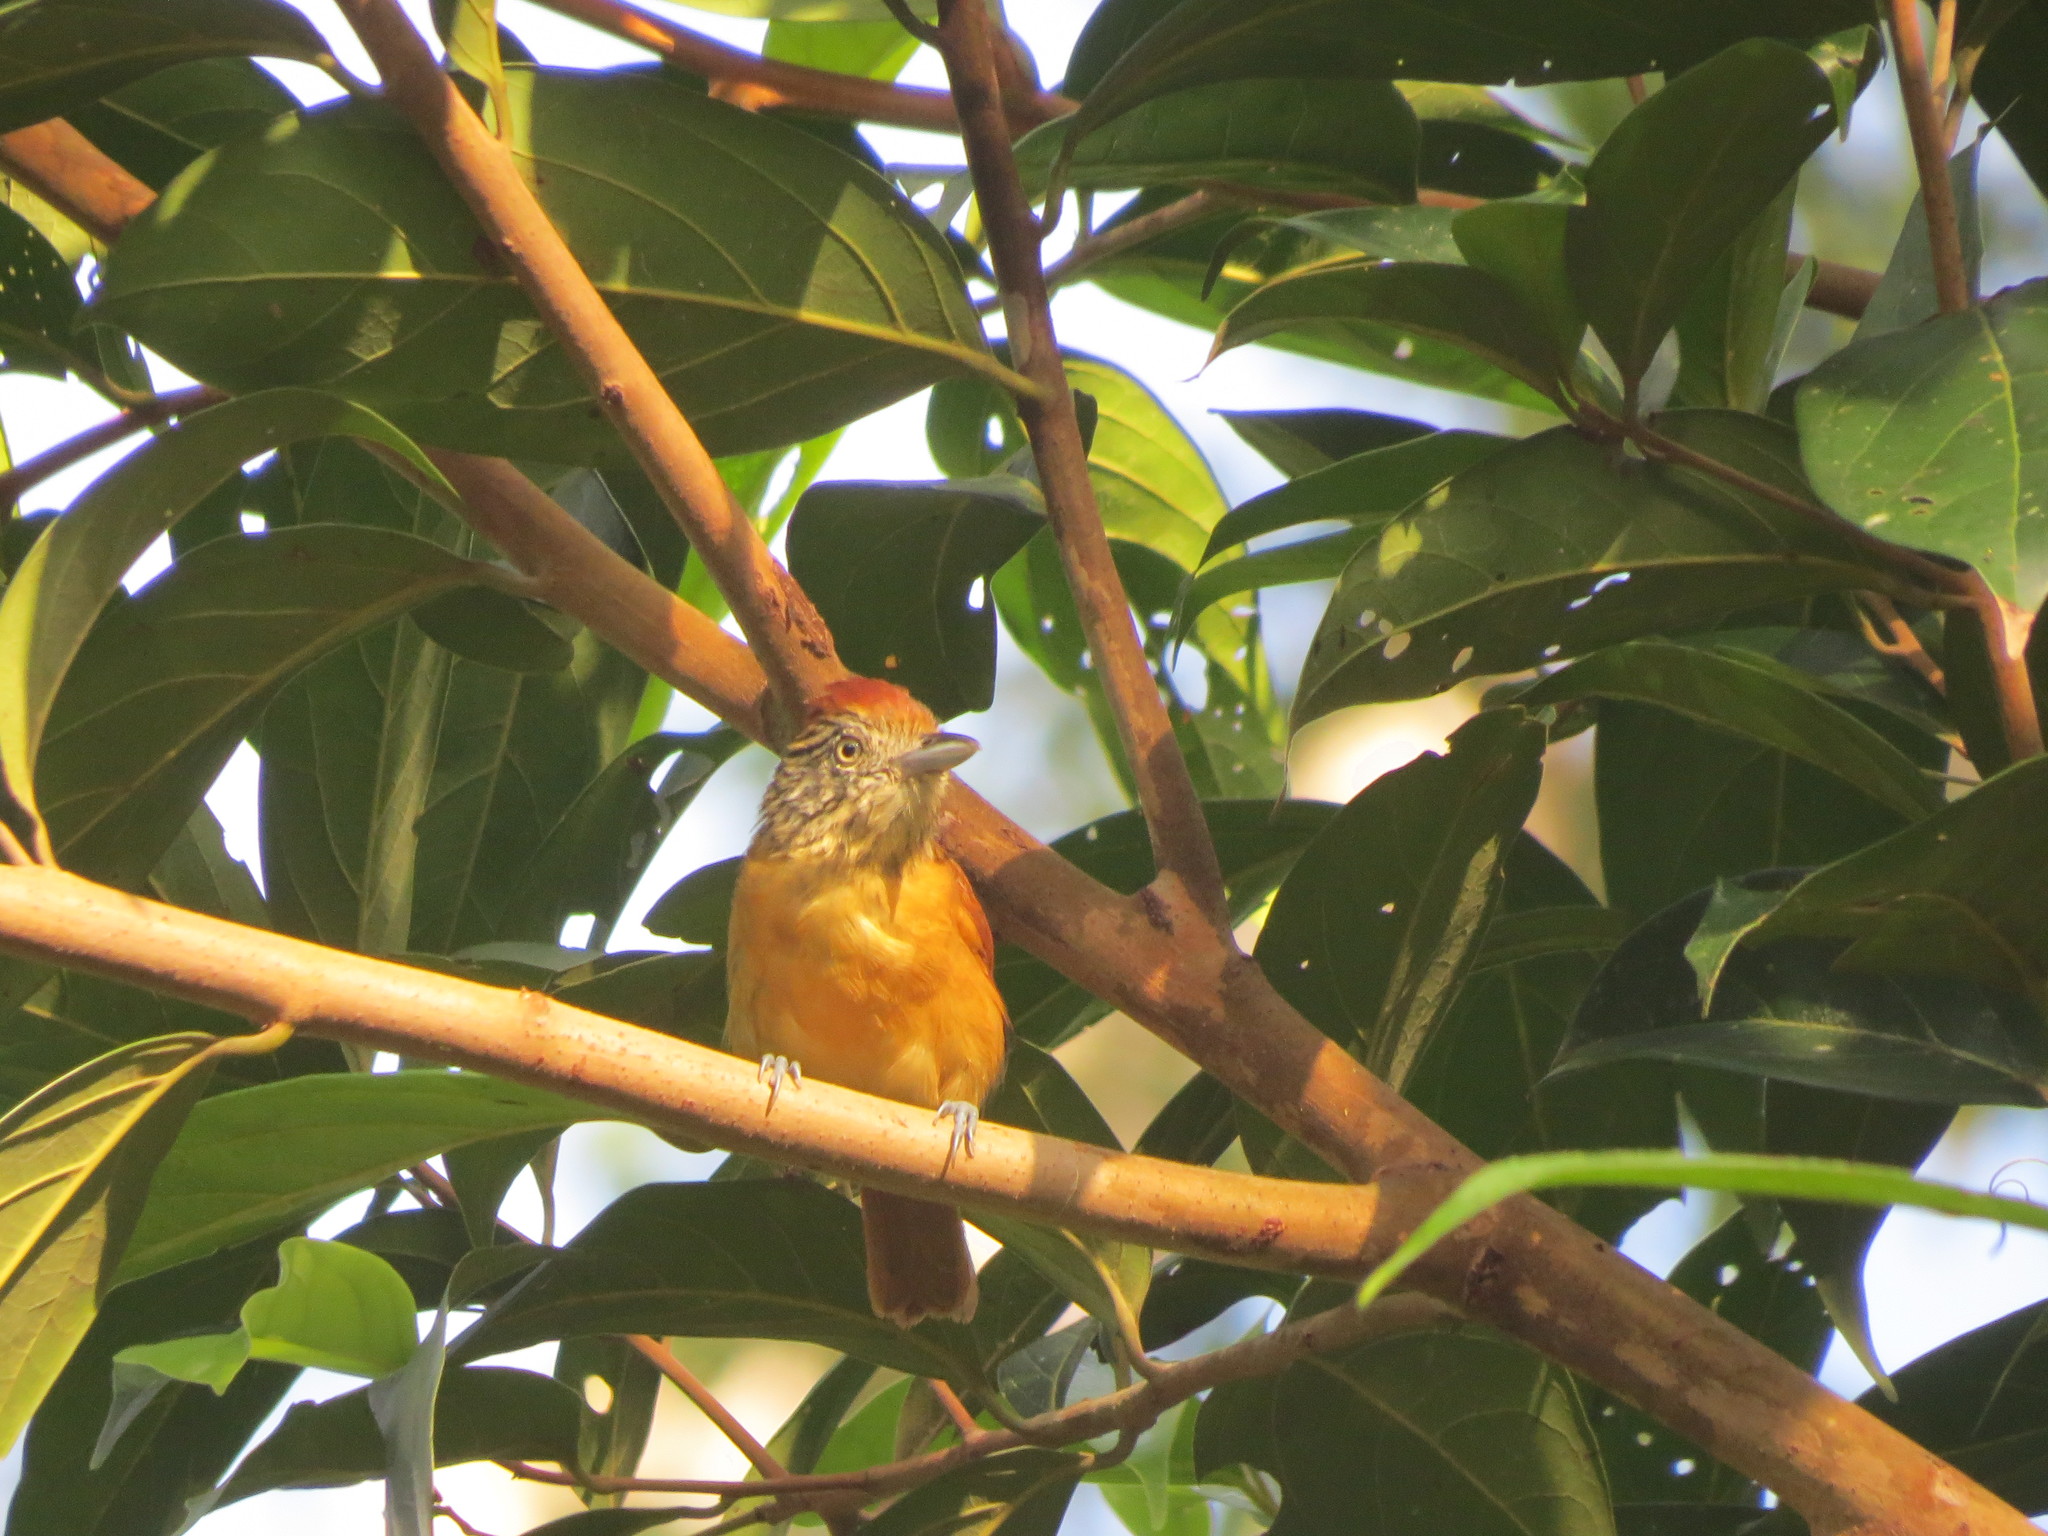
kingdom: Animalia
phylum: Chordata
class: Aves
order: Passeriformes
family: Thamnophilidae
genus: Thamnophilus
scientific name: Thamnophilus doliatus
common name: Barred antshrike
